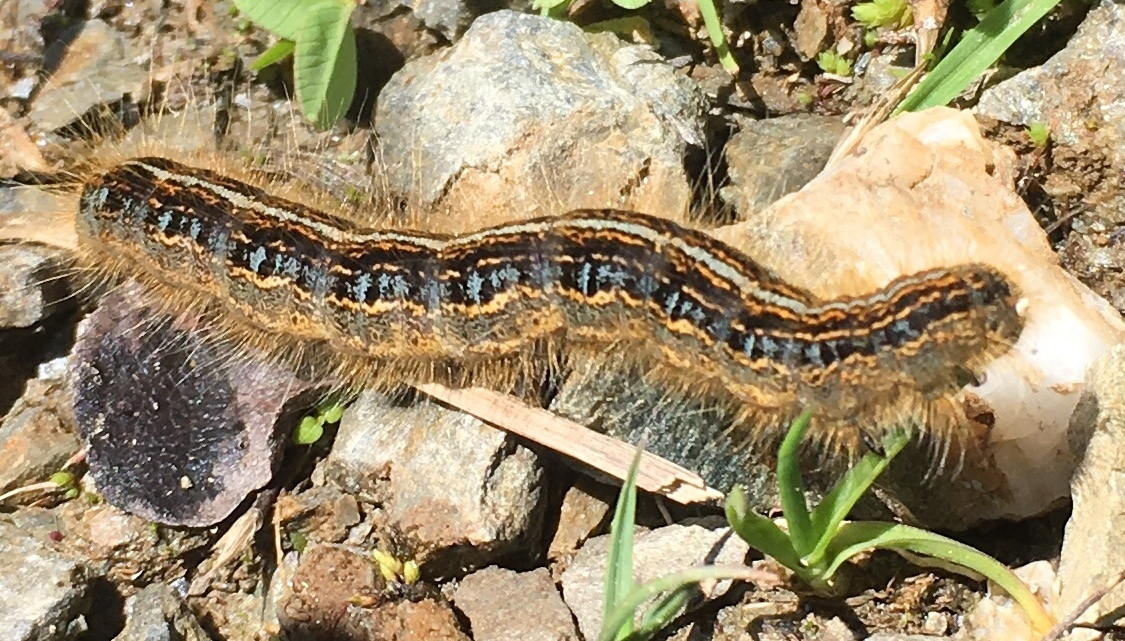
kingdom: Animalia
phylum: Arthropoda
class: Insecta
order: Lepidoptera
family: Lasiocampidae
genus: Malacosoma
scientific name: Malacosoma castrense
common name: Ground lackey
